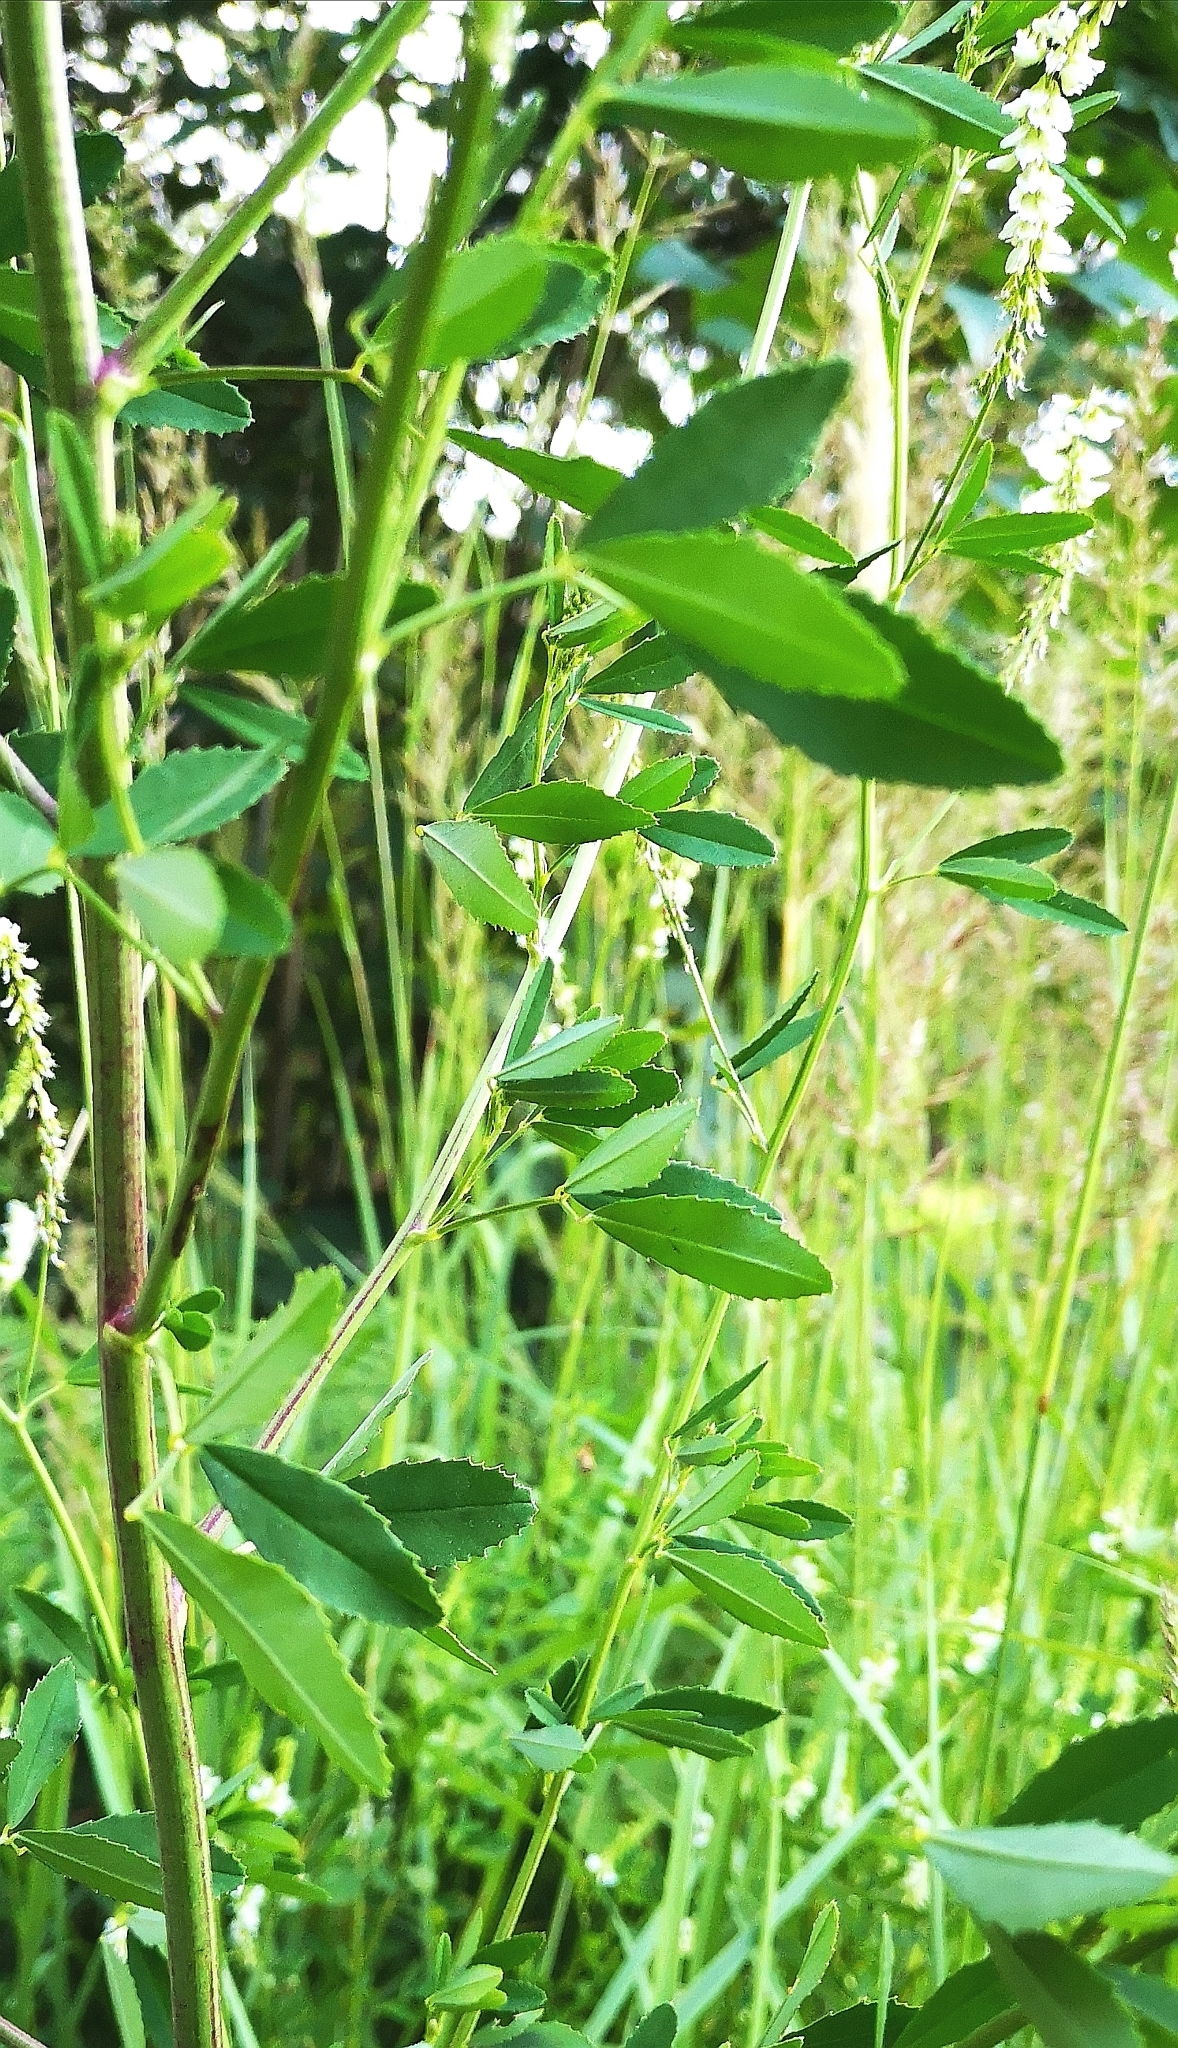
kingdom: Plantae
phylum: Tracheophyta
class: Magnoliopsida
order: Dipsacales
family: Caprifoliaceae
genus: Lonicera
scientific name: Lonicera nigra
